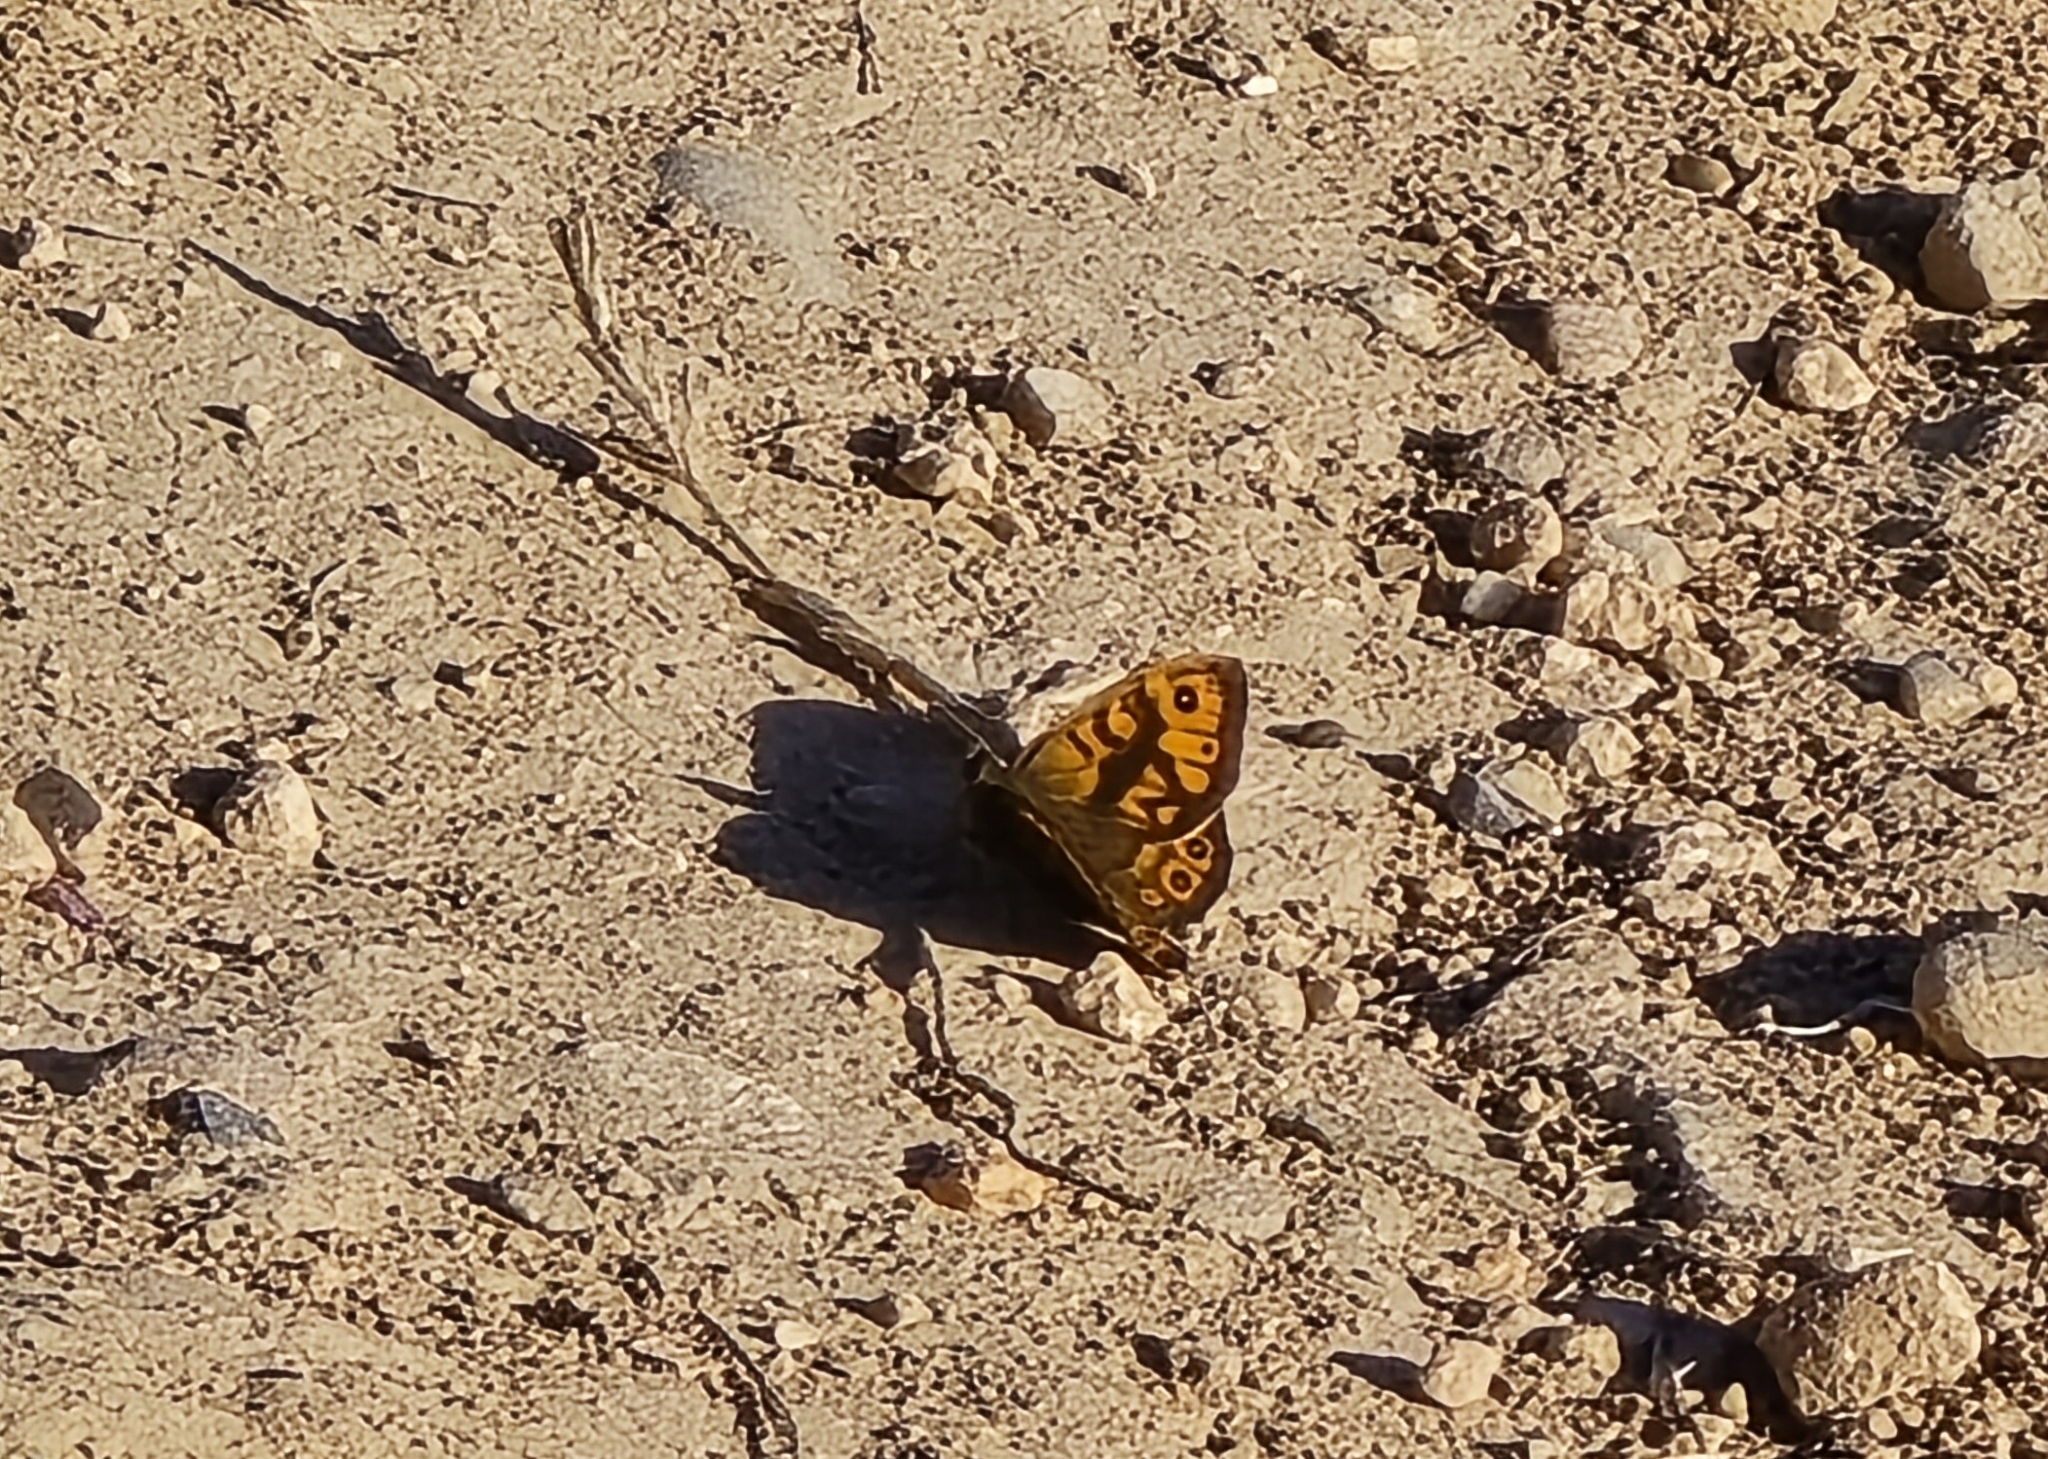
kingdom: Animalia
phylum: Arthropoda
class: Insecta
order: Lepidoptera
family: Nymphalidae
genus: Pararge
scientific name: Pararge Lasiommata megera
